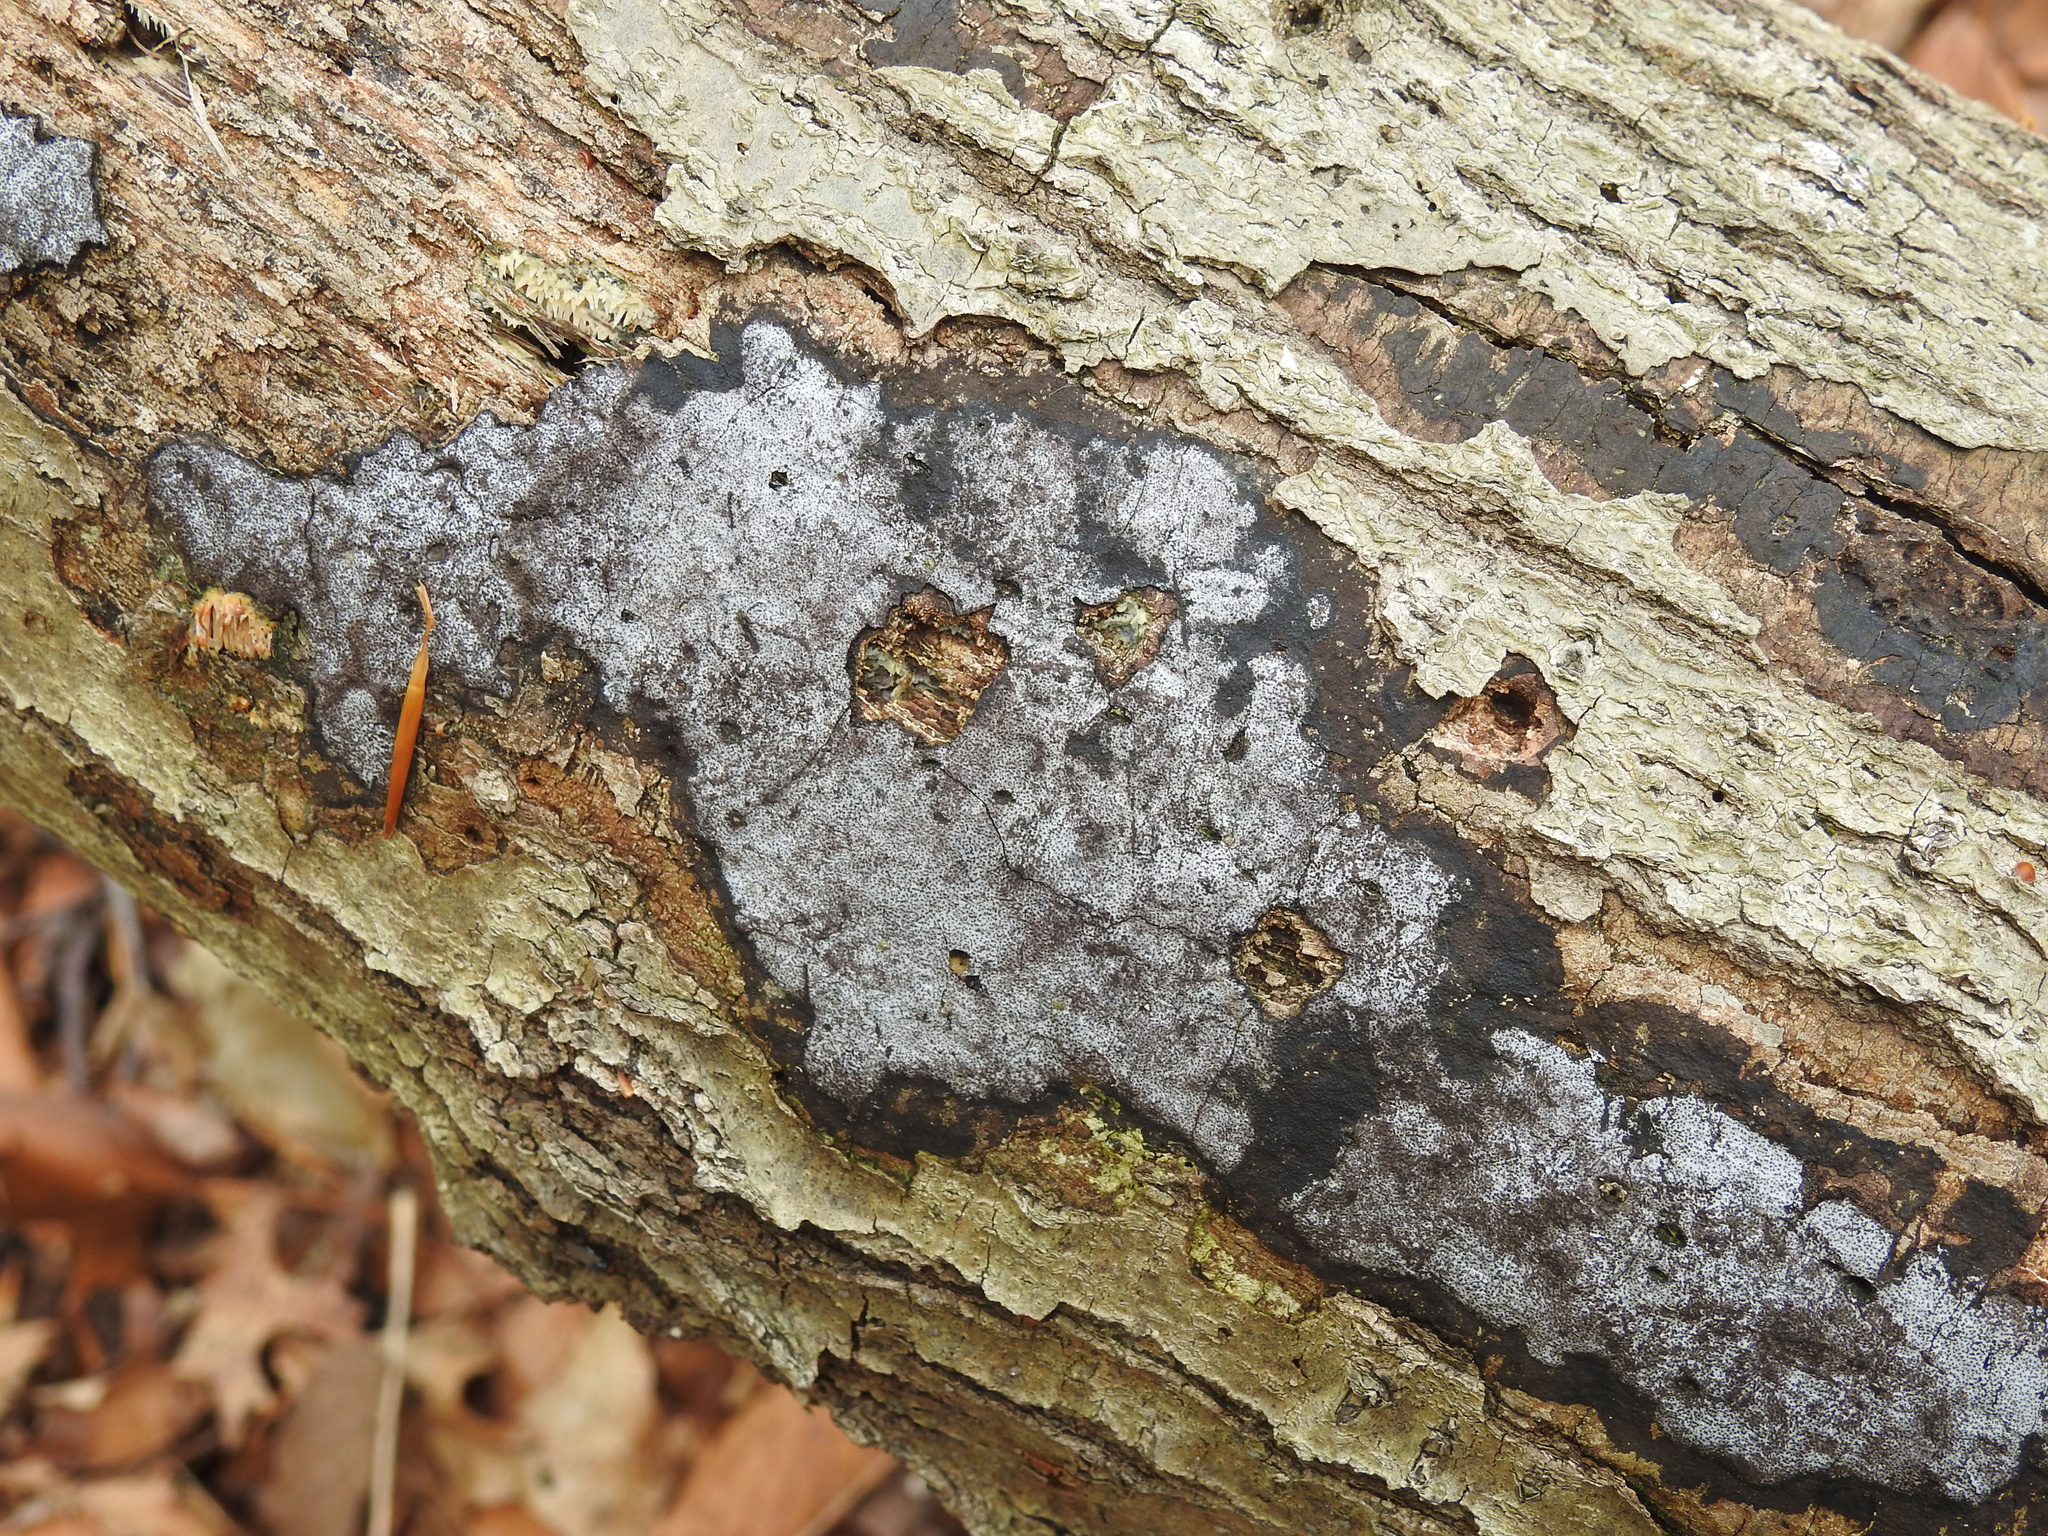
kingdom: Fungi
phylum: Ascomycota
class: Sordariomycetes
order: Xylariales
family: Graphostromataceae
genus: Biscogniauxia
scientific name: Biscogniauxia atropunctata
